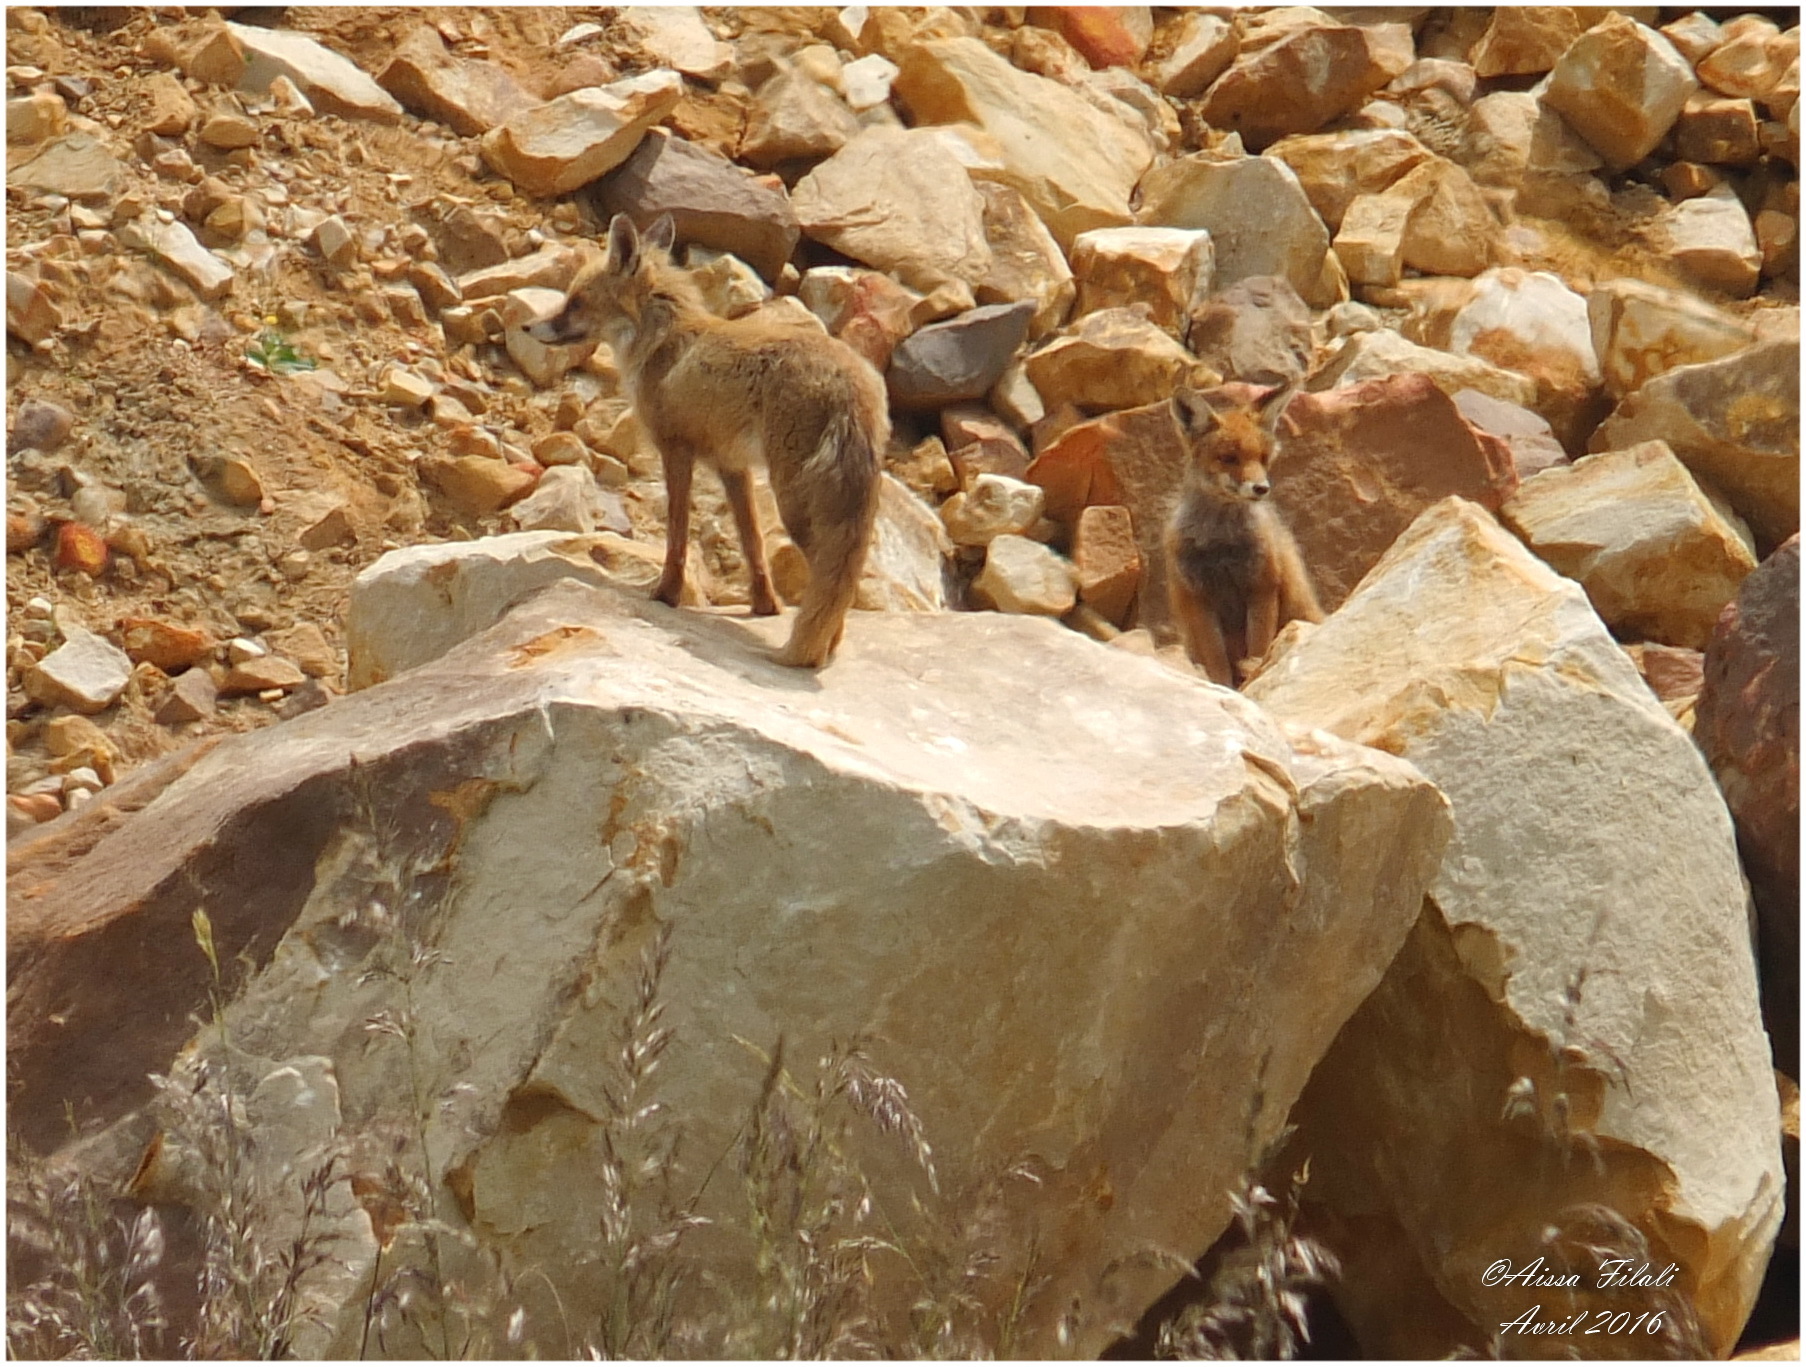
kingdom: Animalia
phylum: Chordata
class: Mammalia
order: Carnivora
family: Canidae
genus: Vulpes
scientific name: Vulpes vulpes
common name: Red fox
